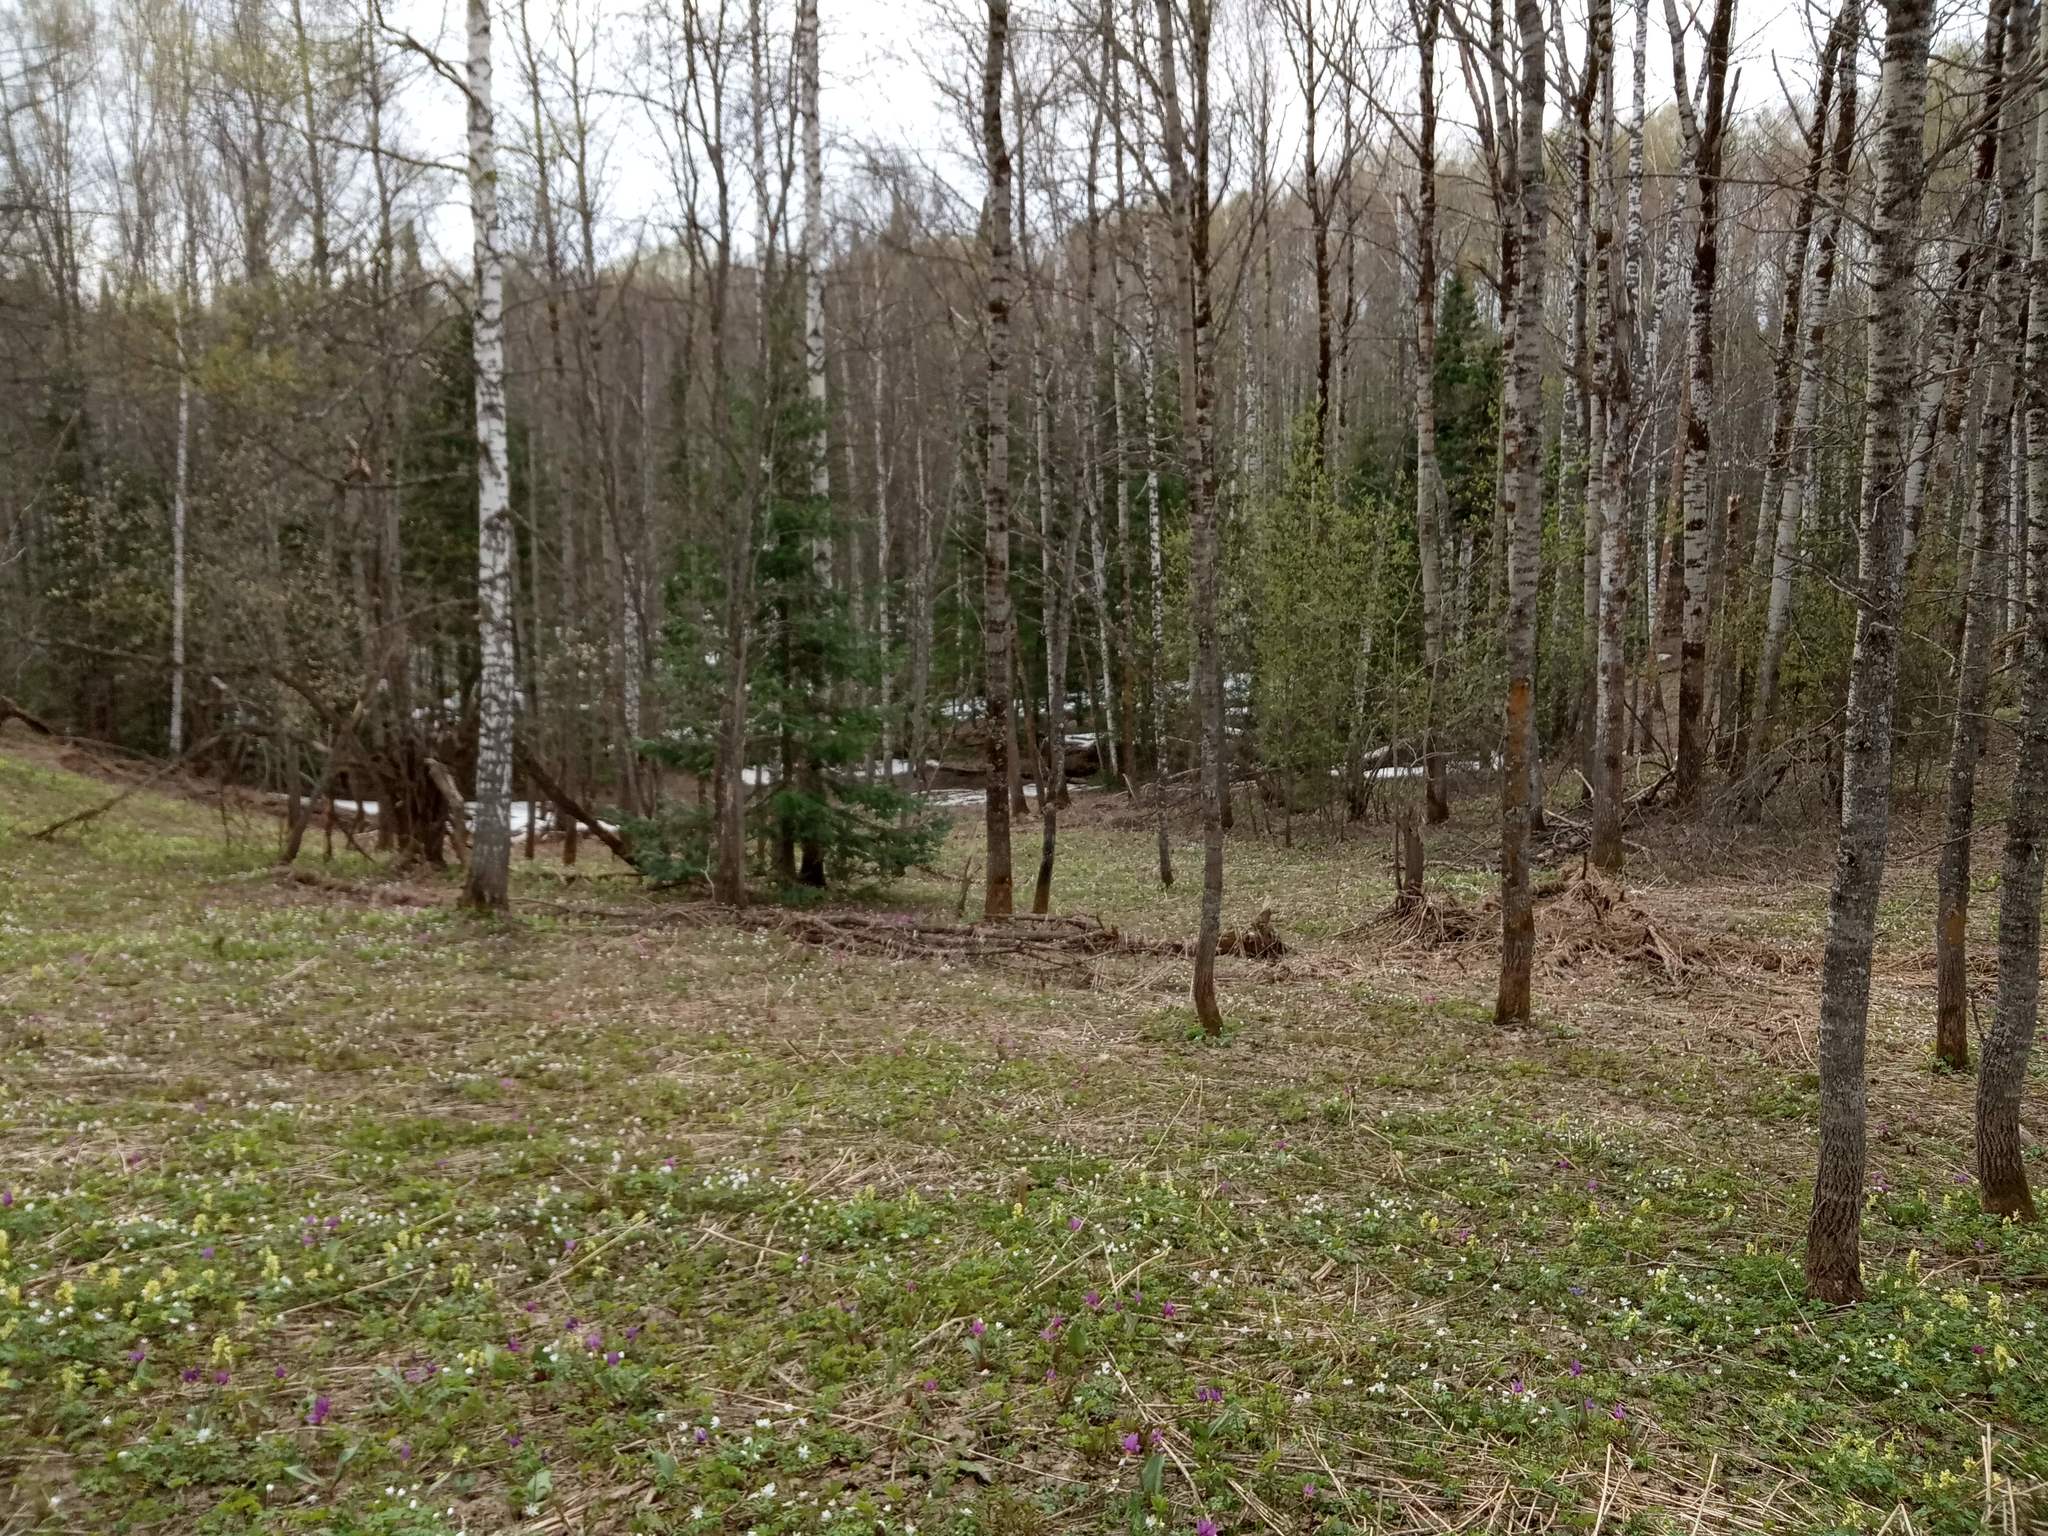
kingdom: Plantae
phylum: Tracheophyta
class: Pinopsida
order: Pinales
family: Pinaceae
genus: Abies
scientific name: Abies sibirica
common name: Siberian fir
